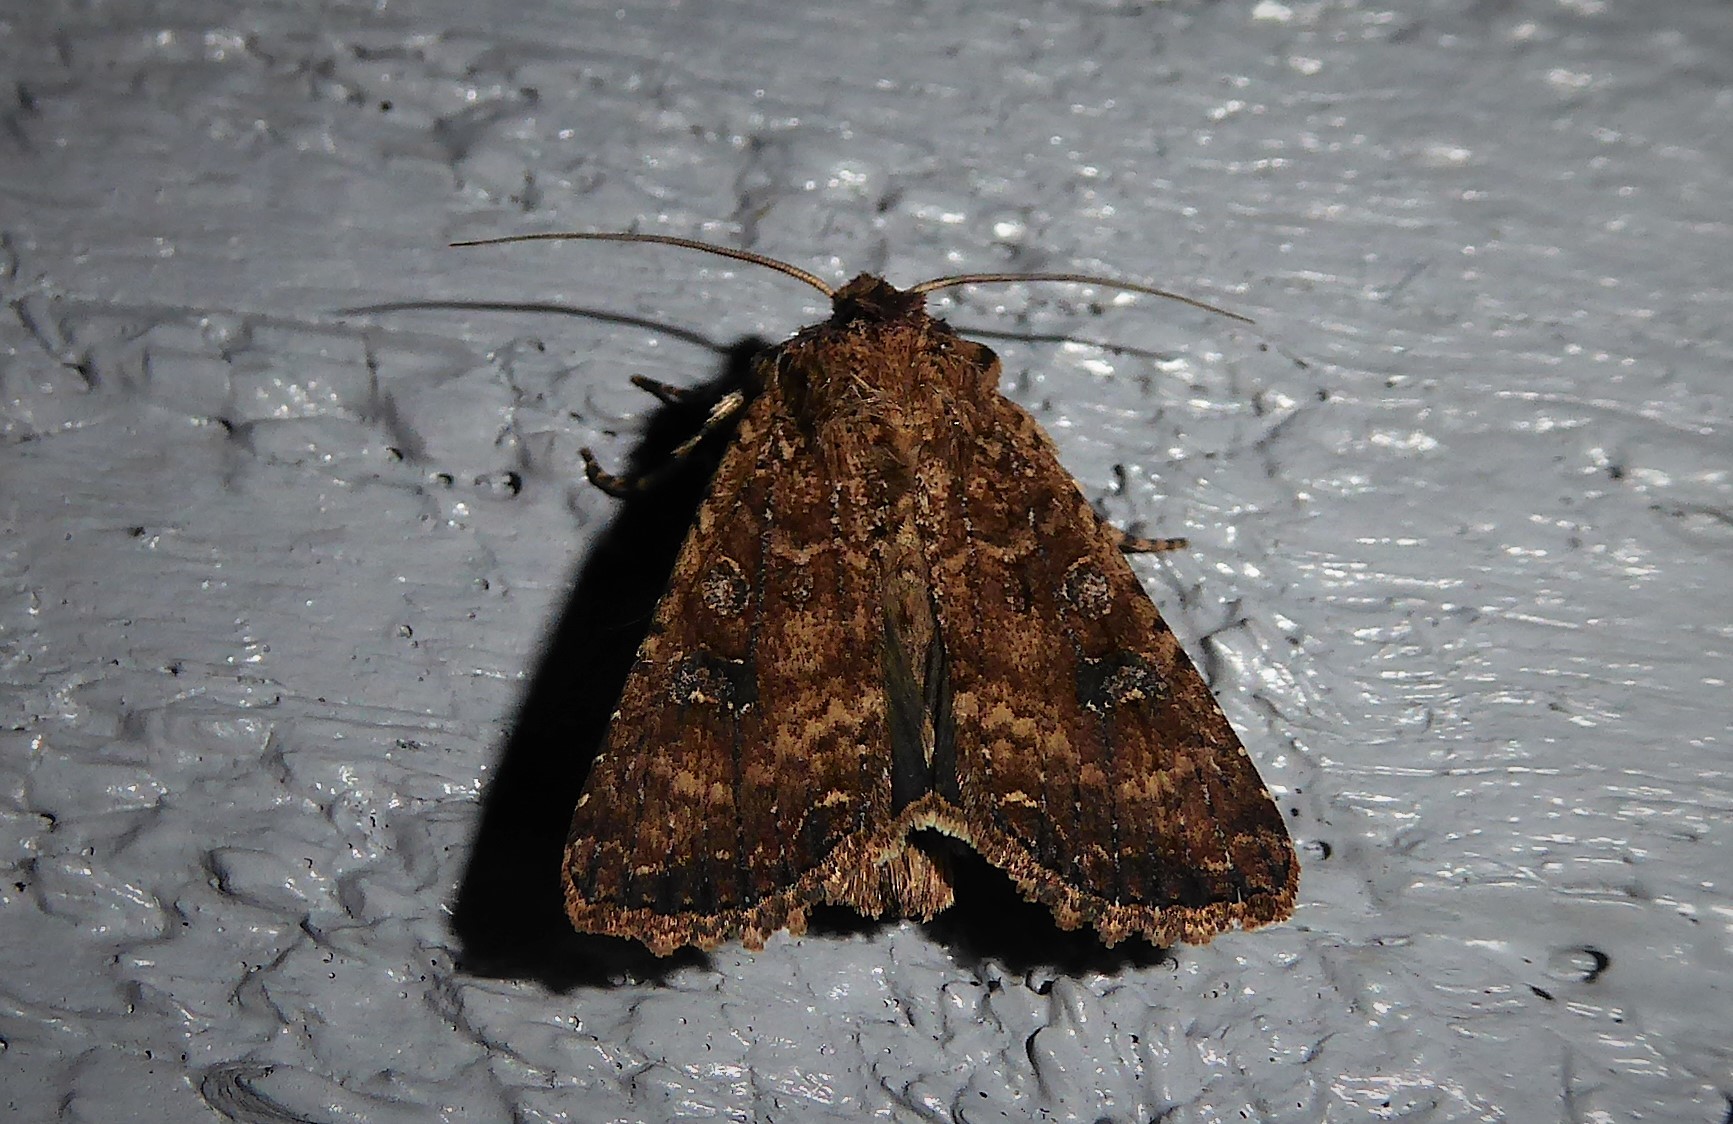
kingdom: Animalia
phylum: Arthropoda
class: Insecta
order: Lepidoptera
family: Noctuidae
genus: Ichneutica
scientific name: Ichneutica morosa
